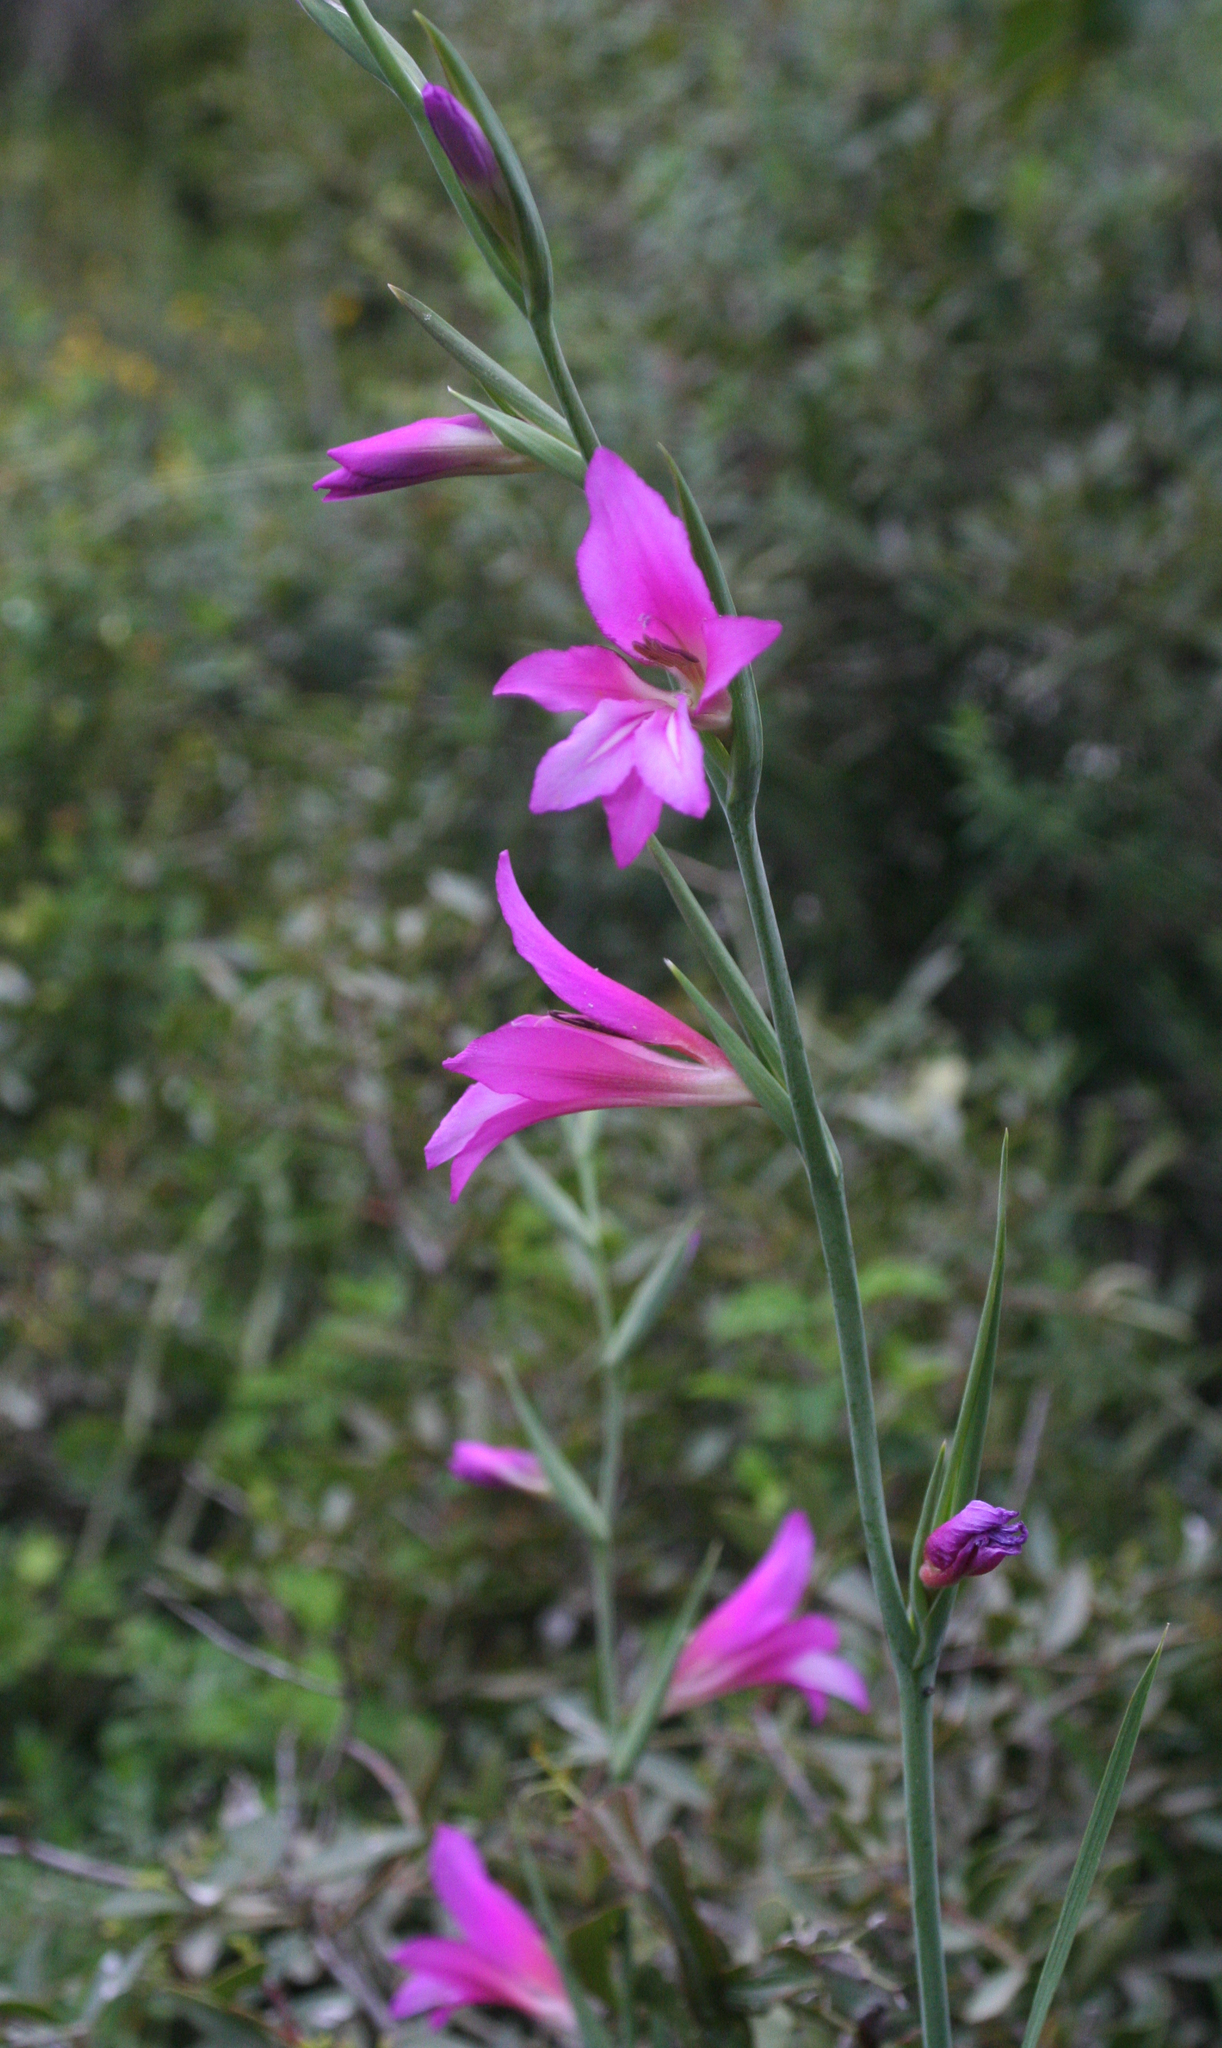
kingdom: Plantae
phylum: Tracheophyta
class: Liliopsida
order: Asparagales
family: Iridaceae
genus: Gladiolus
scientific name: Gladiolus italicus
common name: Field gladiolus
